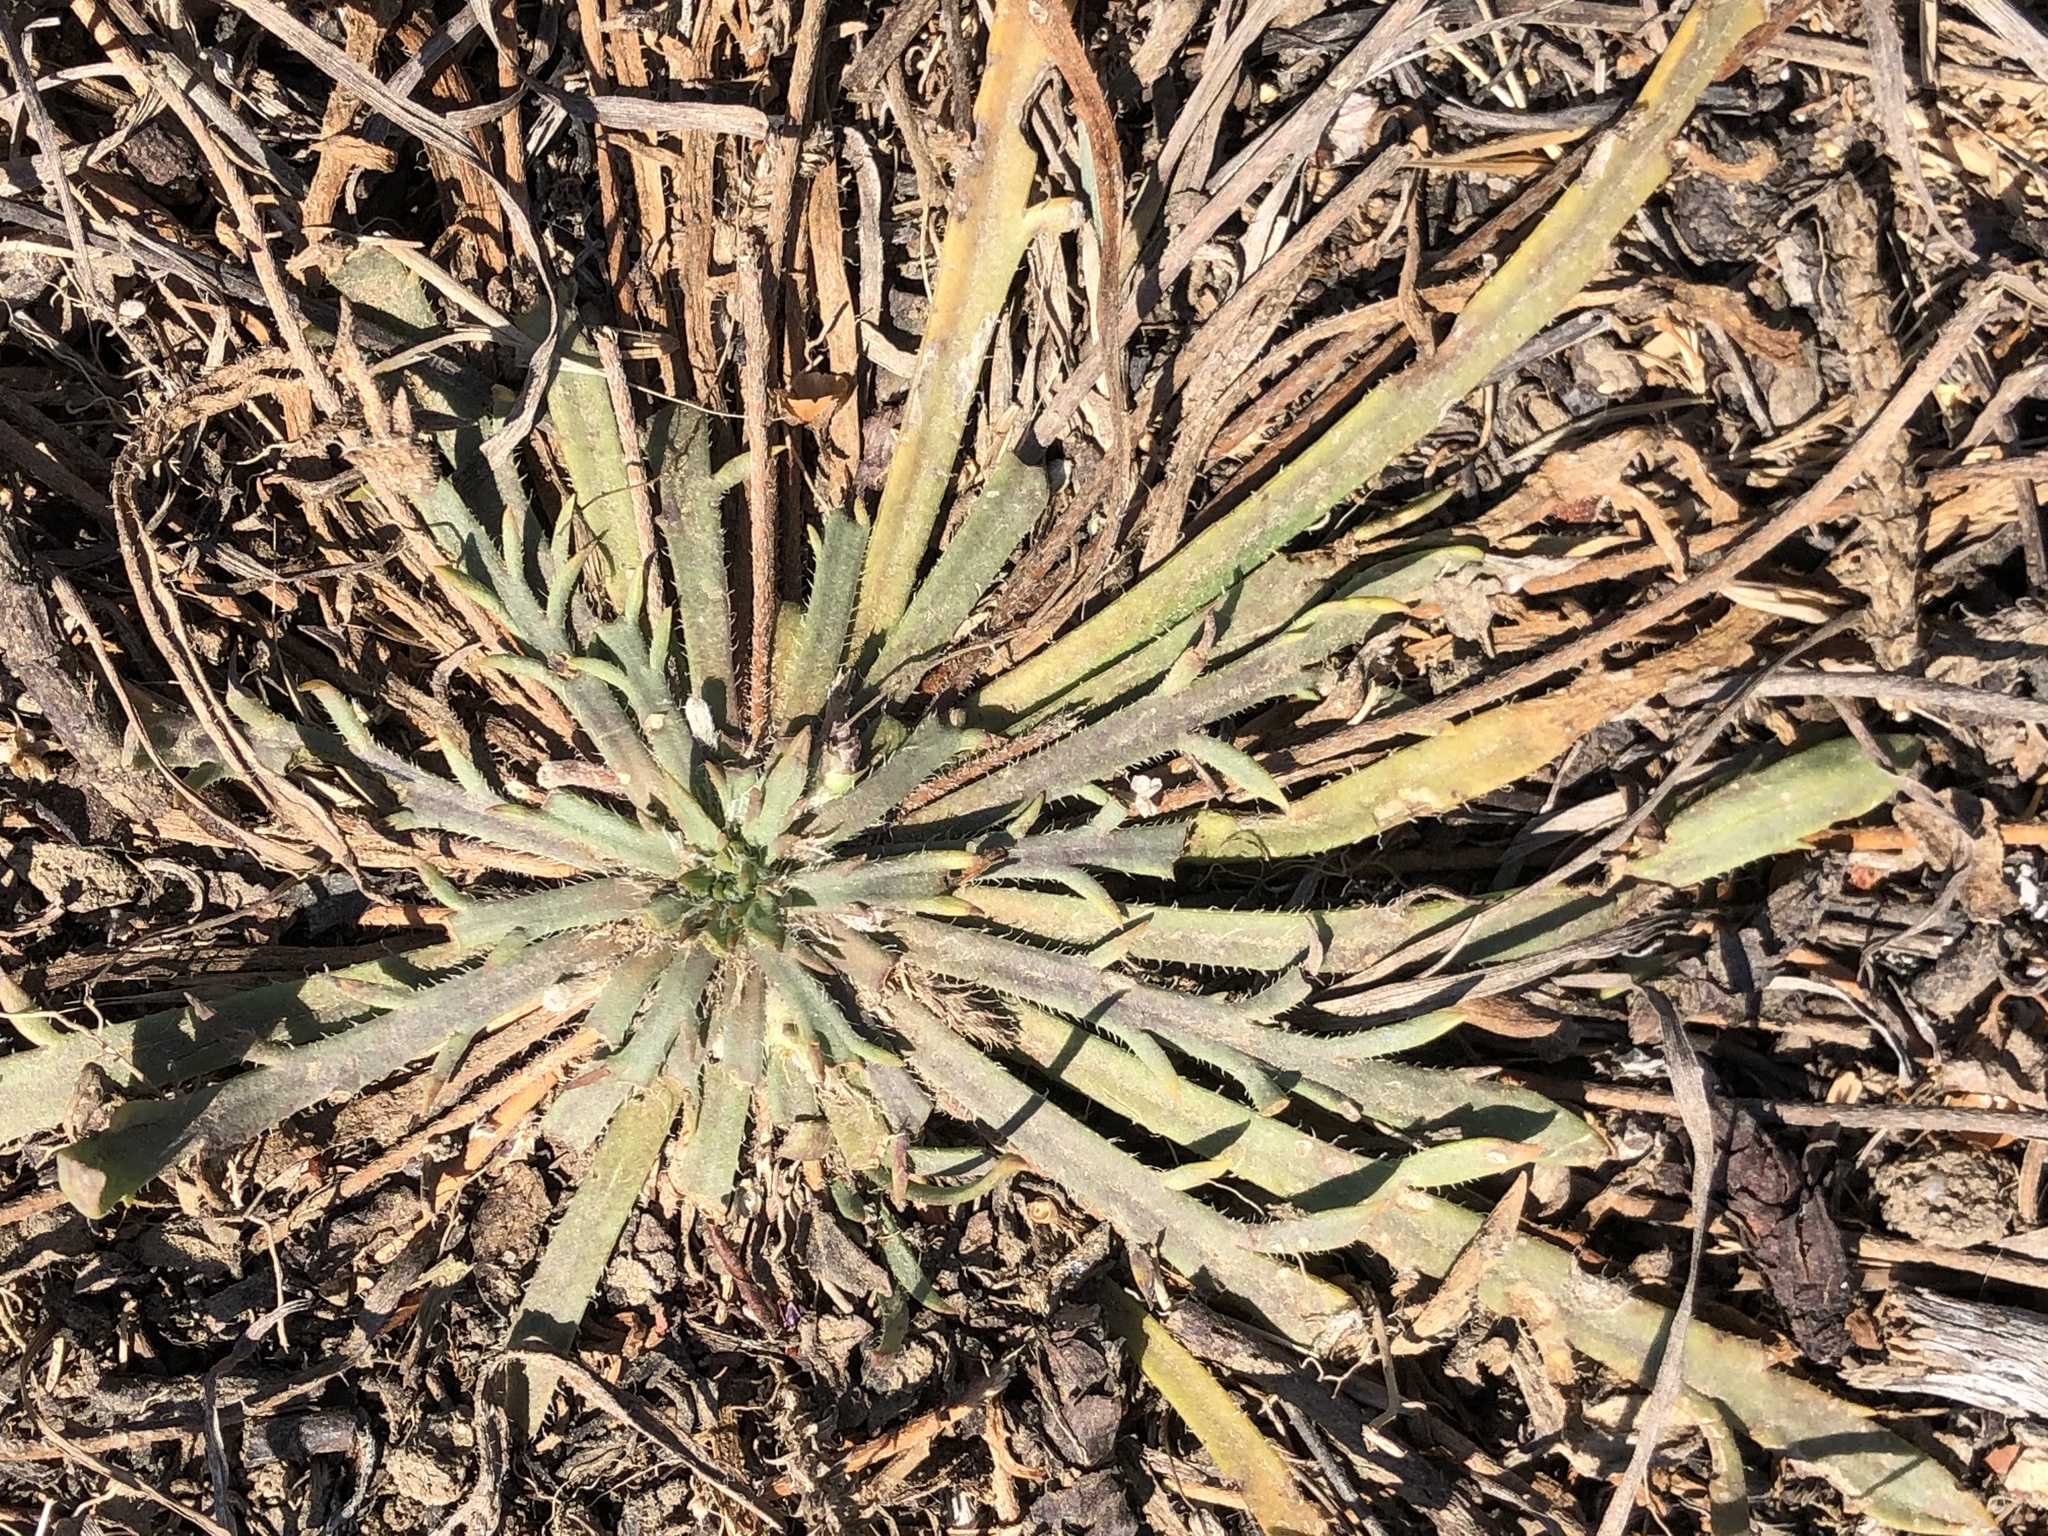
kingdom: Plantae
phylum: Tracheophyta
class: Magnoliopsida
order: Lamiales
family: Plantaginaceae
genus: Plantago
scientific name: Plantago coronopus
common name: Buck's-horn plantain
